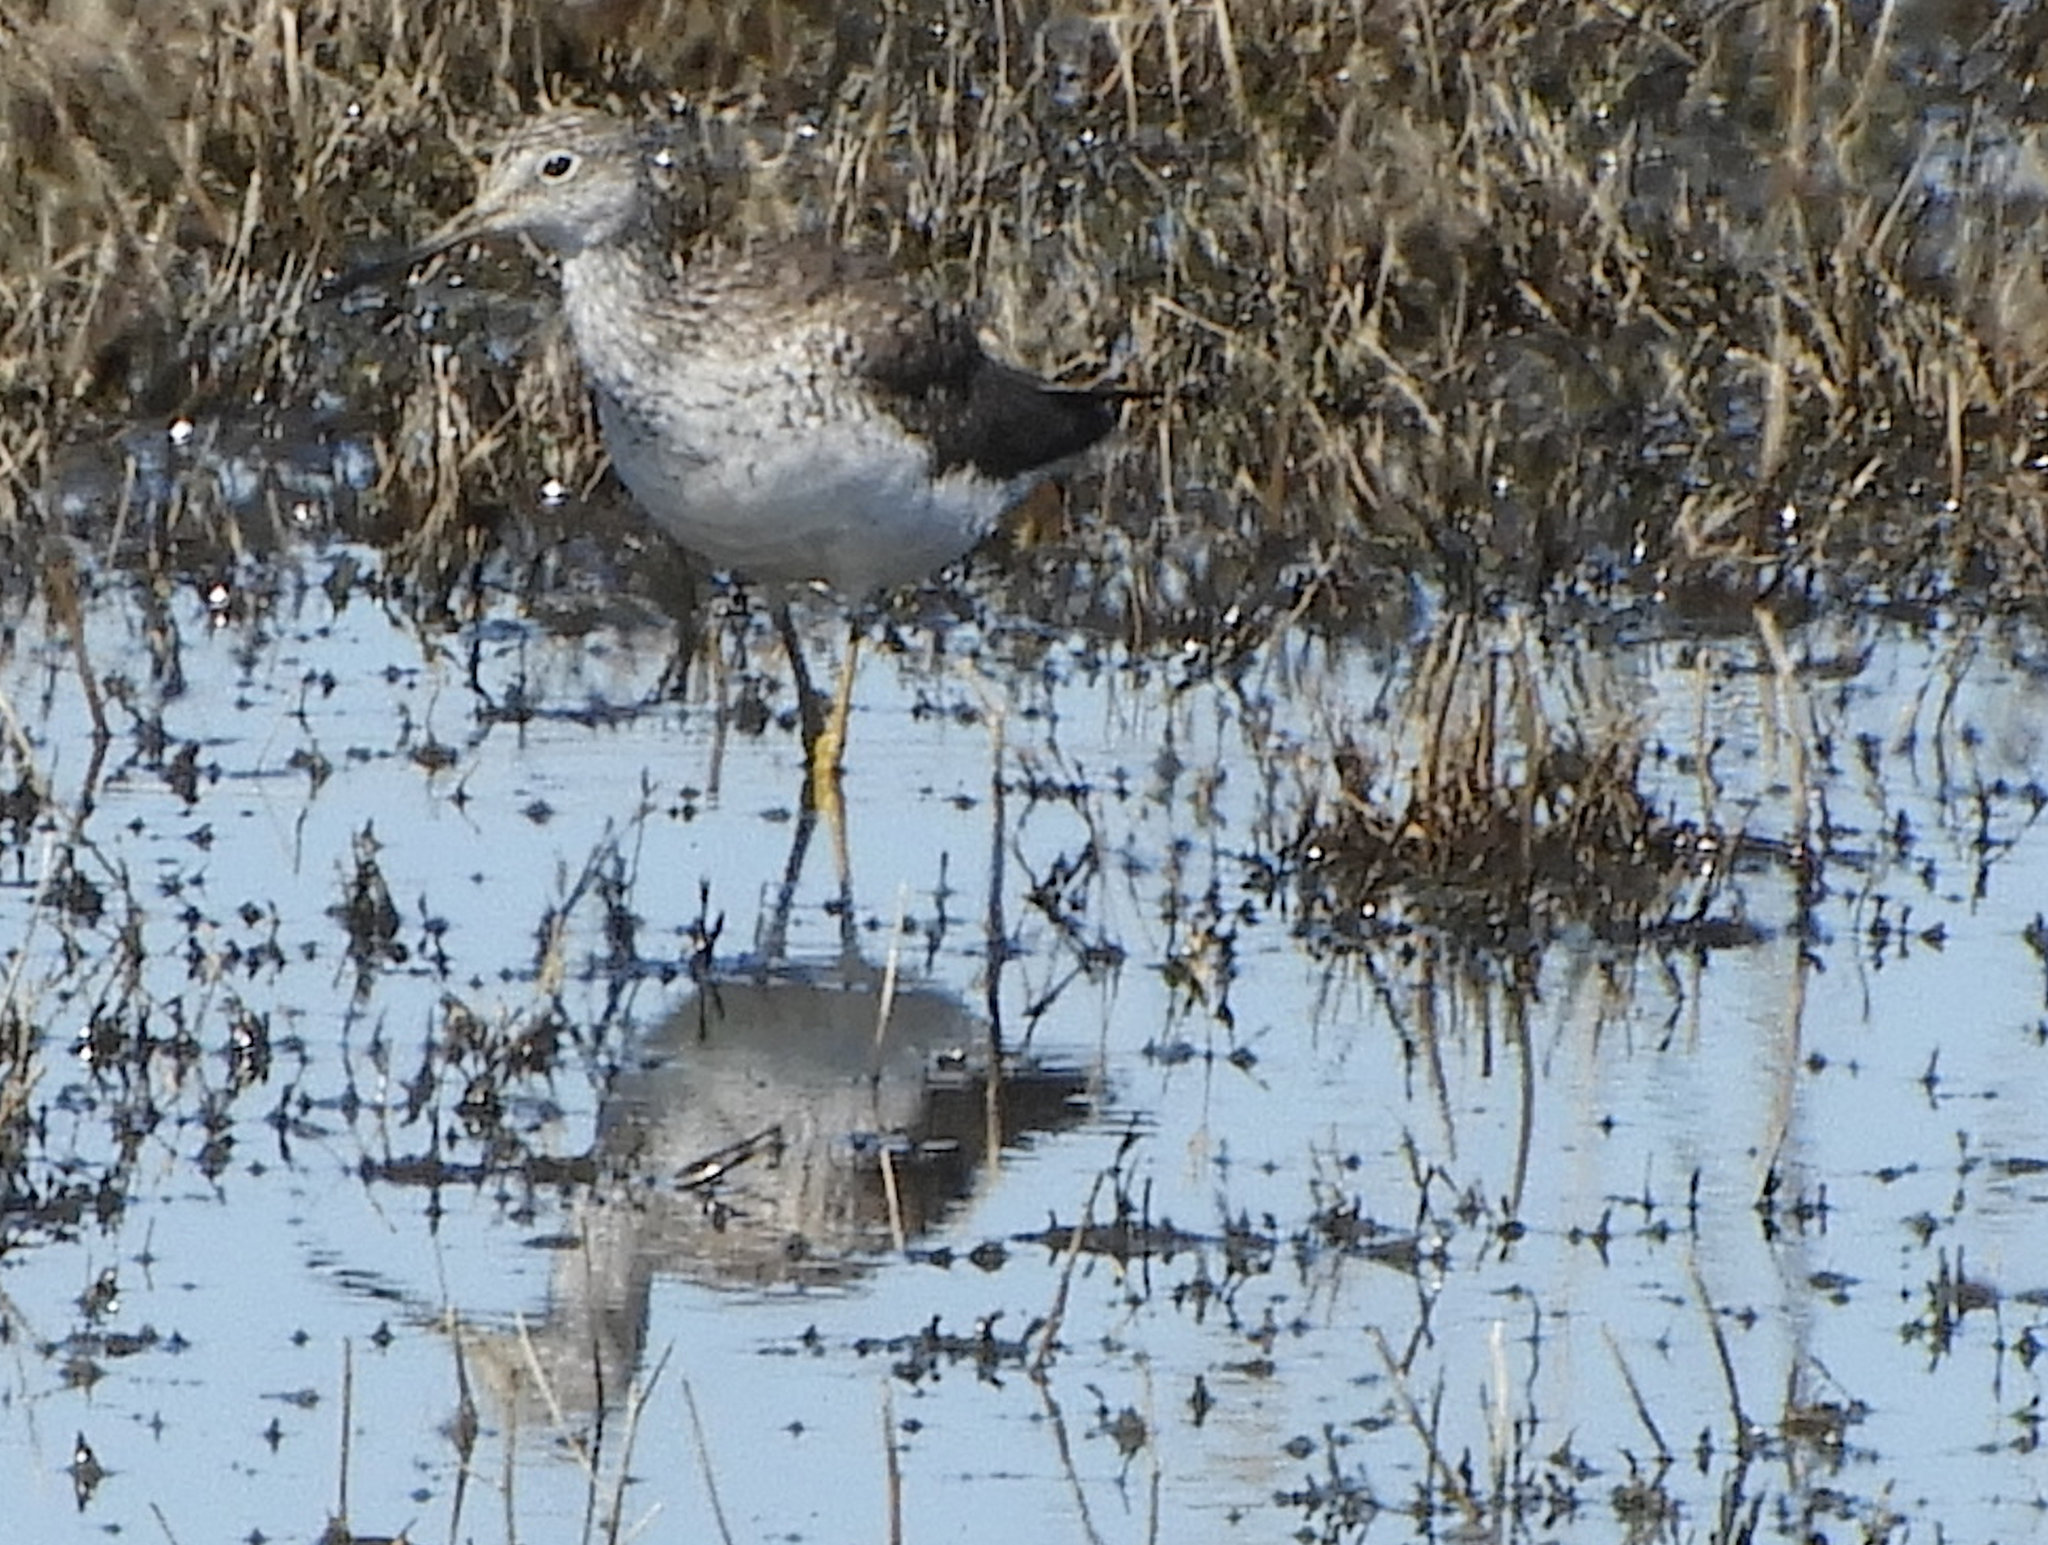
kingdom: Animalia
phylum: Chordata
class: Aves
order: Charadriiformes
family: Scolopacidae
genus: Tringa
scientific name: Tringa melanoleuca
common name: Greater yellowlegs
